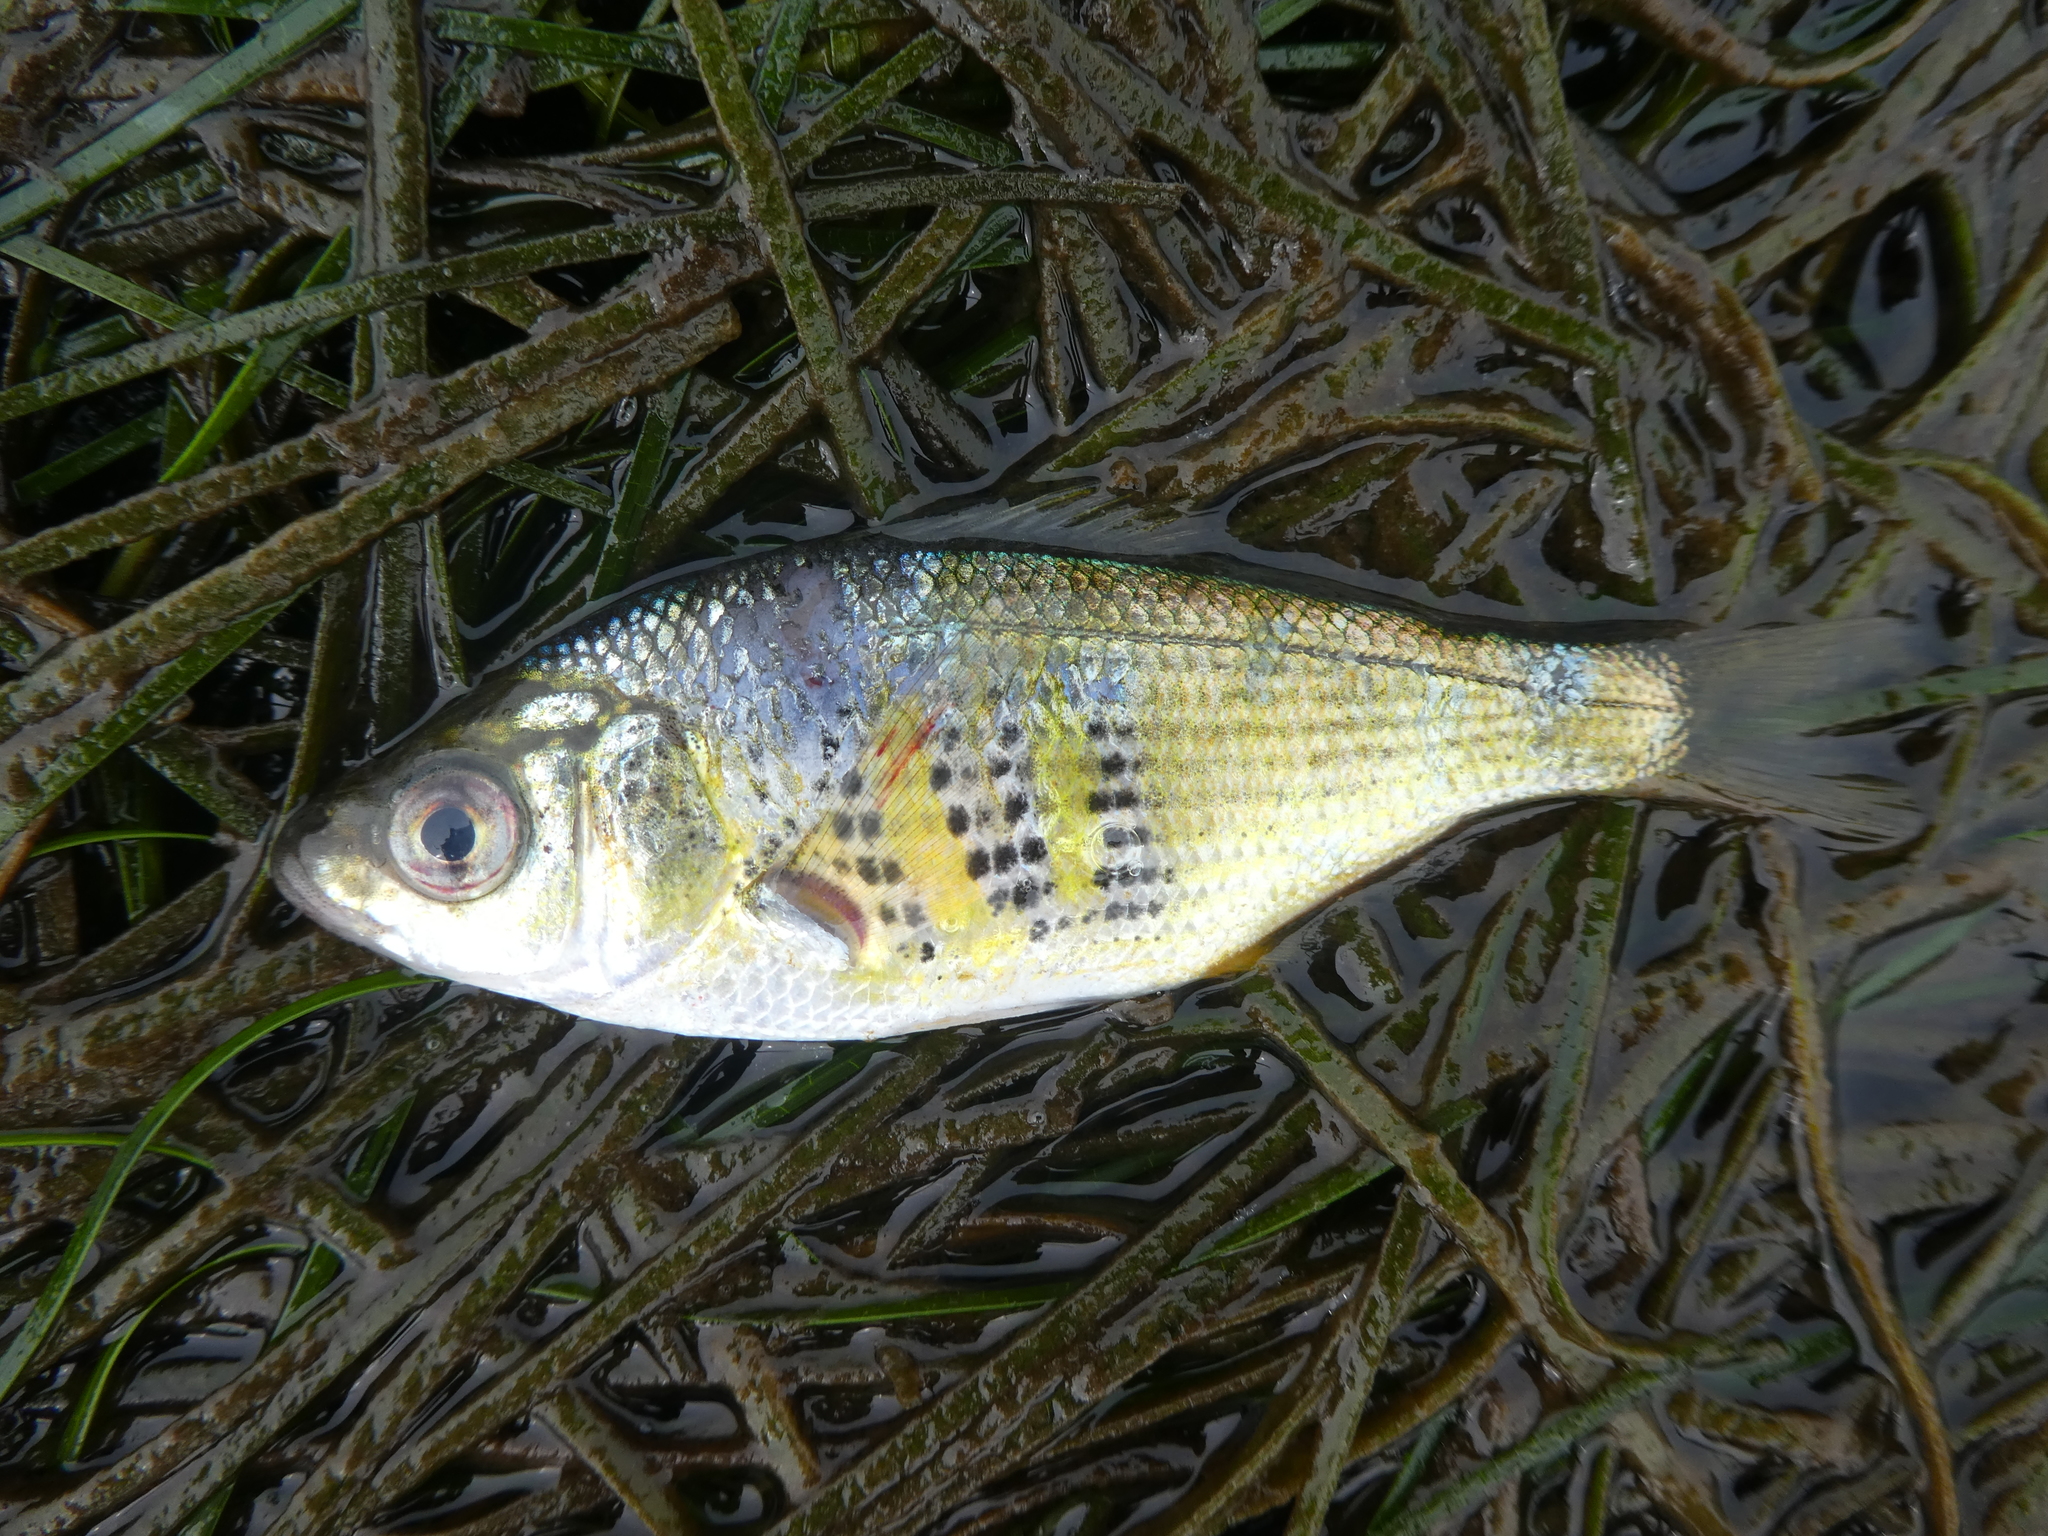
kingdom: Animalia
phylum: Chordata
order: Perciformes
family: Embiotocidae
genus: Cymatogaster
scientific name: Cymatogaster aggregata
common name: Shiner perch
